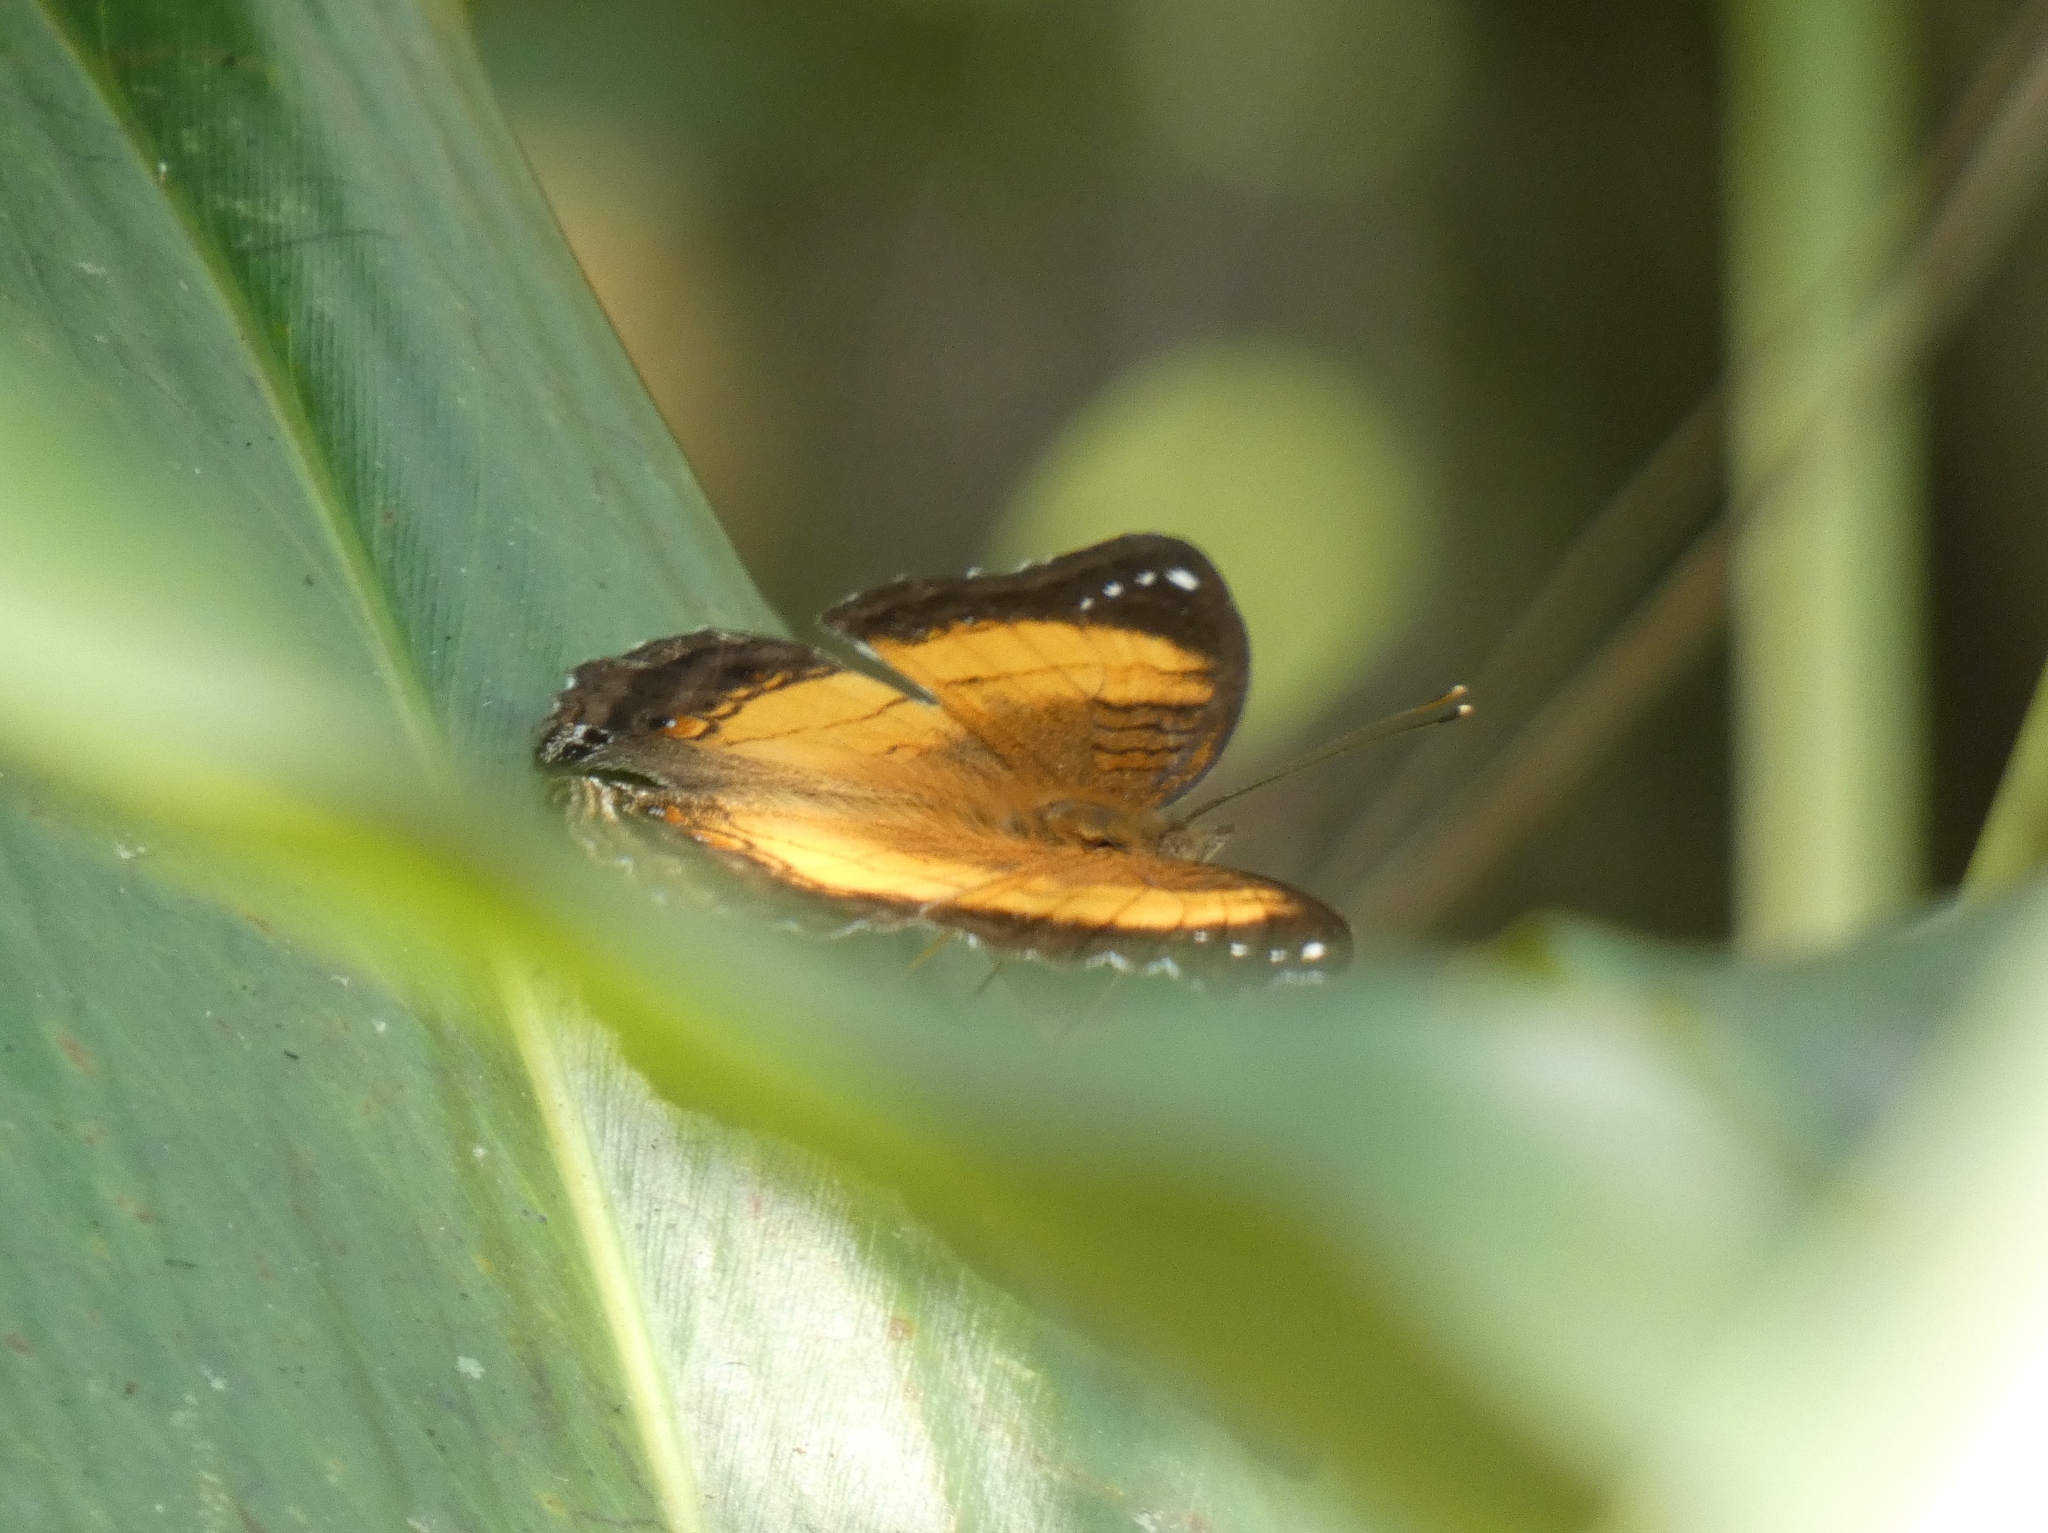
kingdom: Animalia
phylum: Arthropoda
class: Insecta
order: Lepidoptera
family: Nymphalidae
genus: Junonia
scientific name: Junonia terea
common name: Soldier pansy
